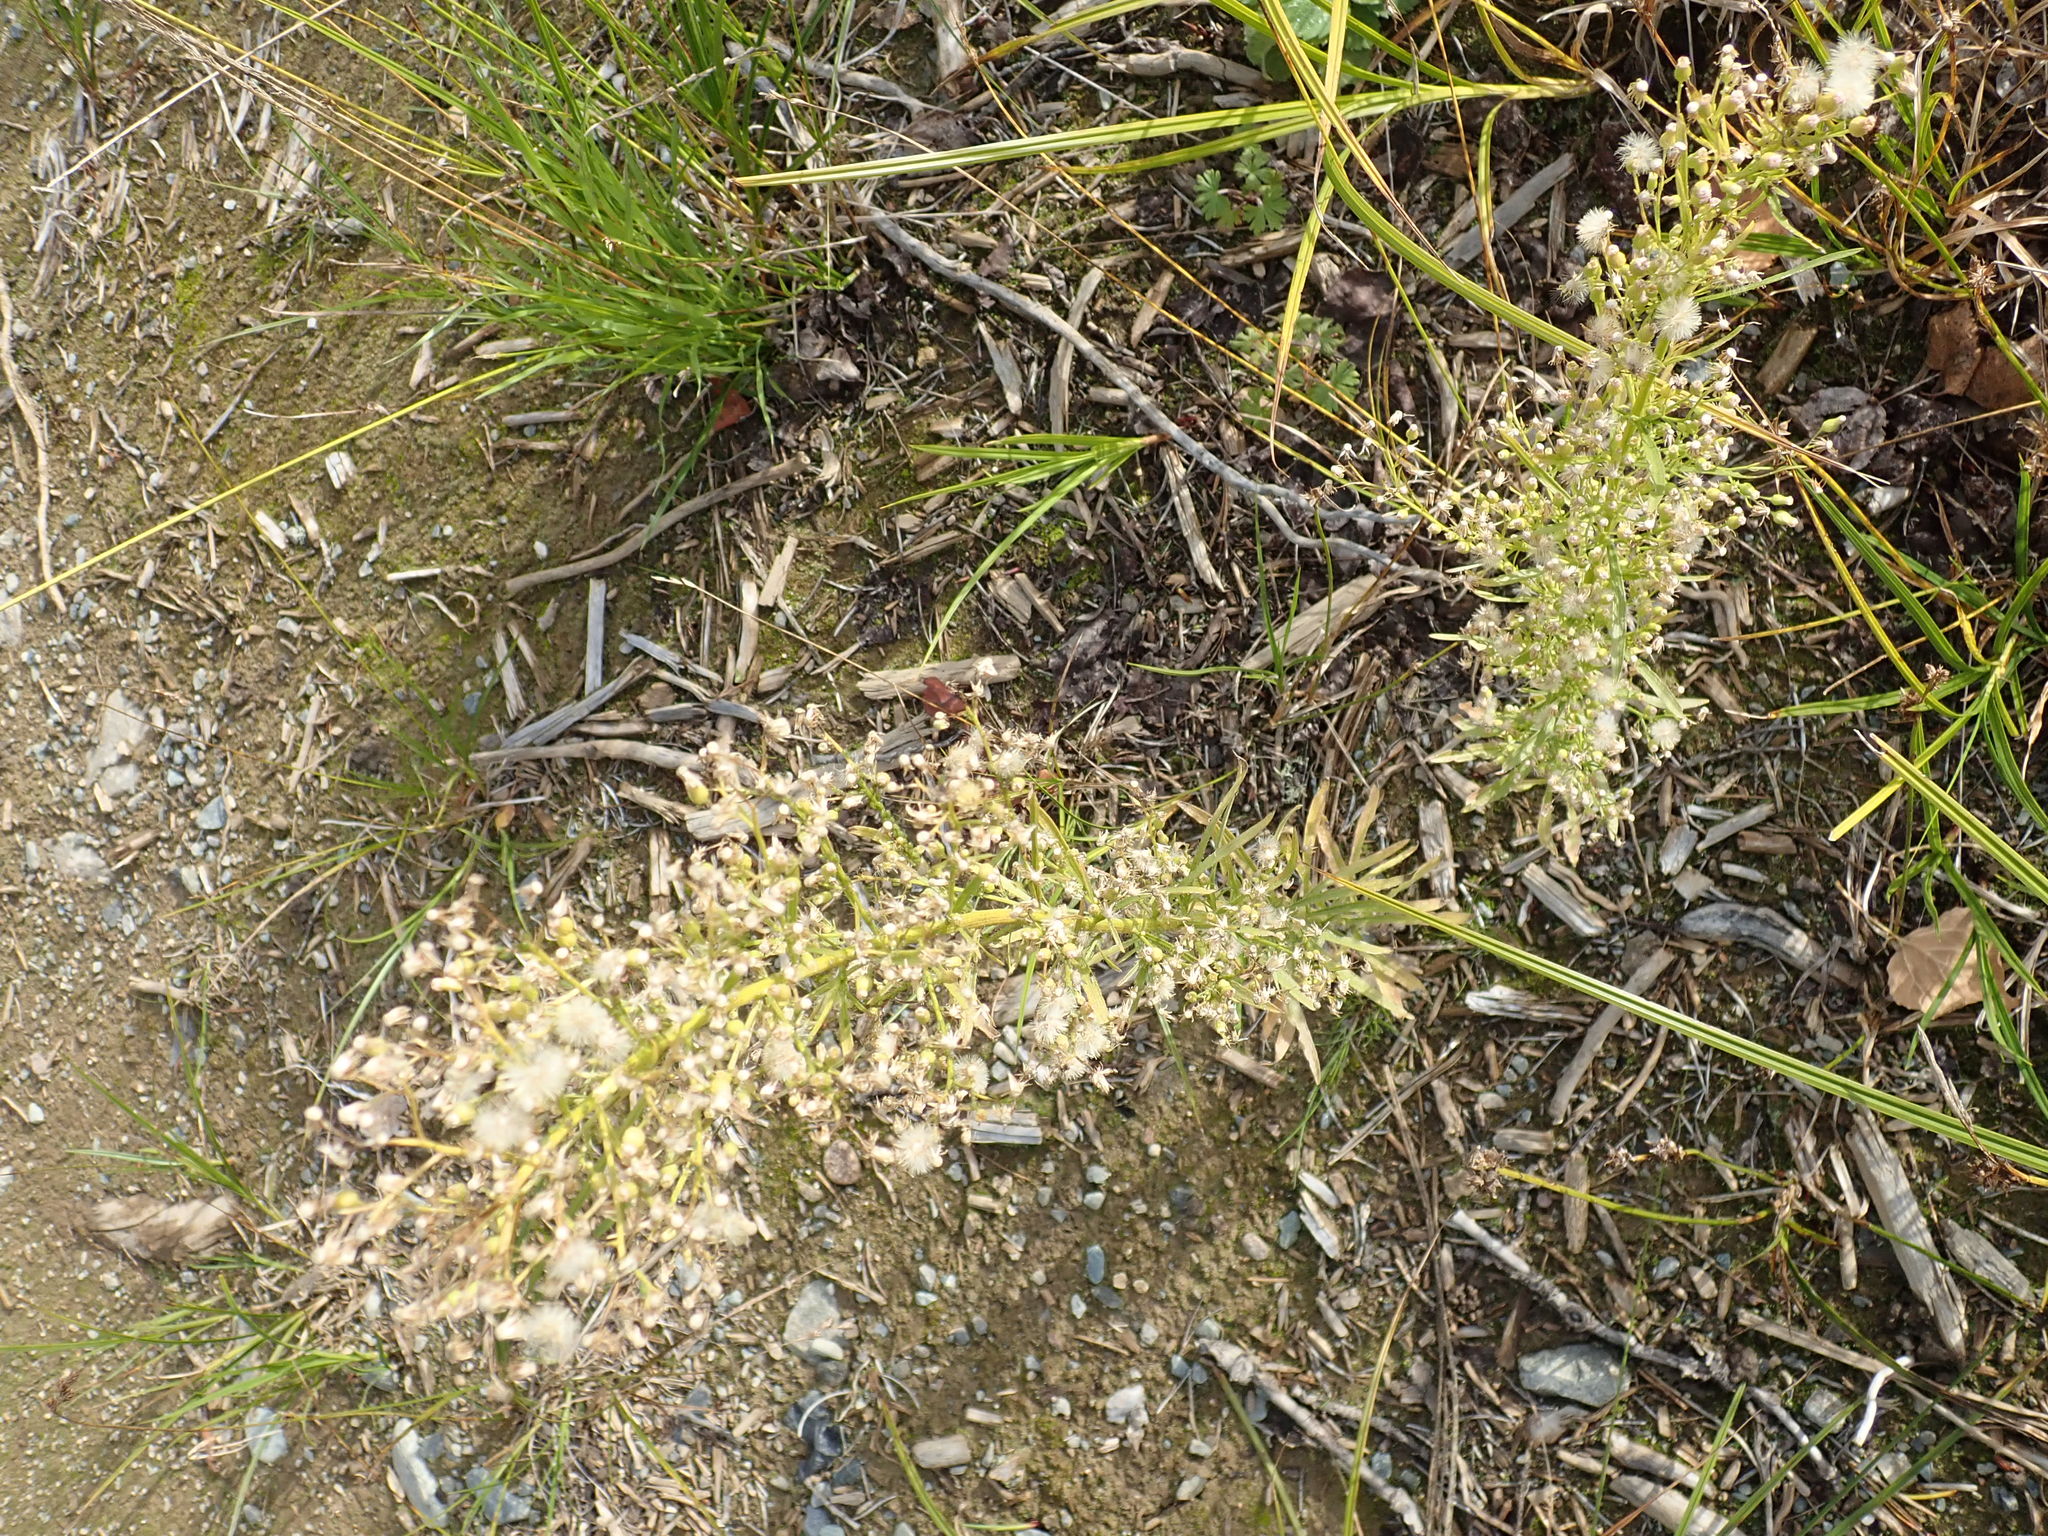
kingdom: Plantae
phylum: Tracheophyta
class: Magnoliopsida
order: Asterales
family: Asteraceae
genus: Erigeron
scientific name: Erigeron canadensis
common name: Canadian fleabane
